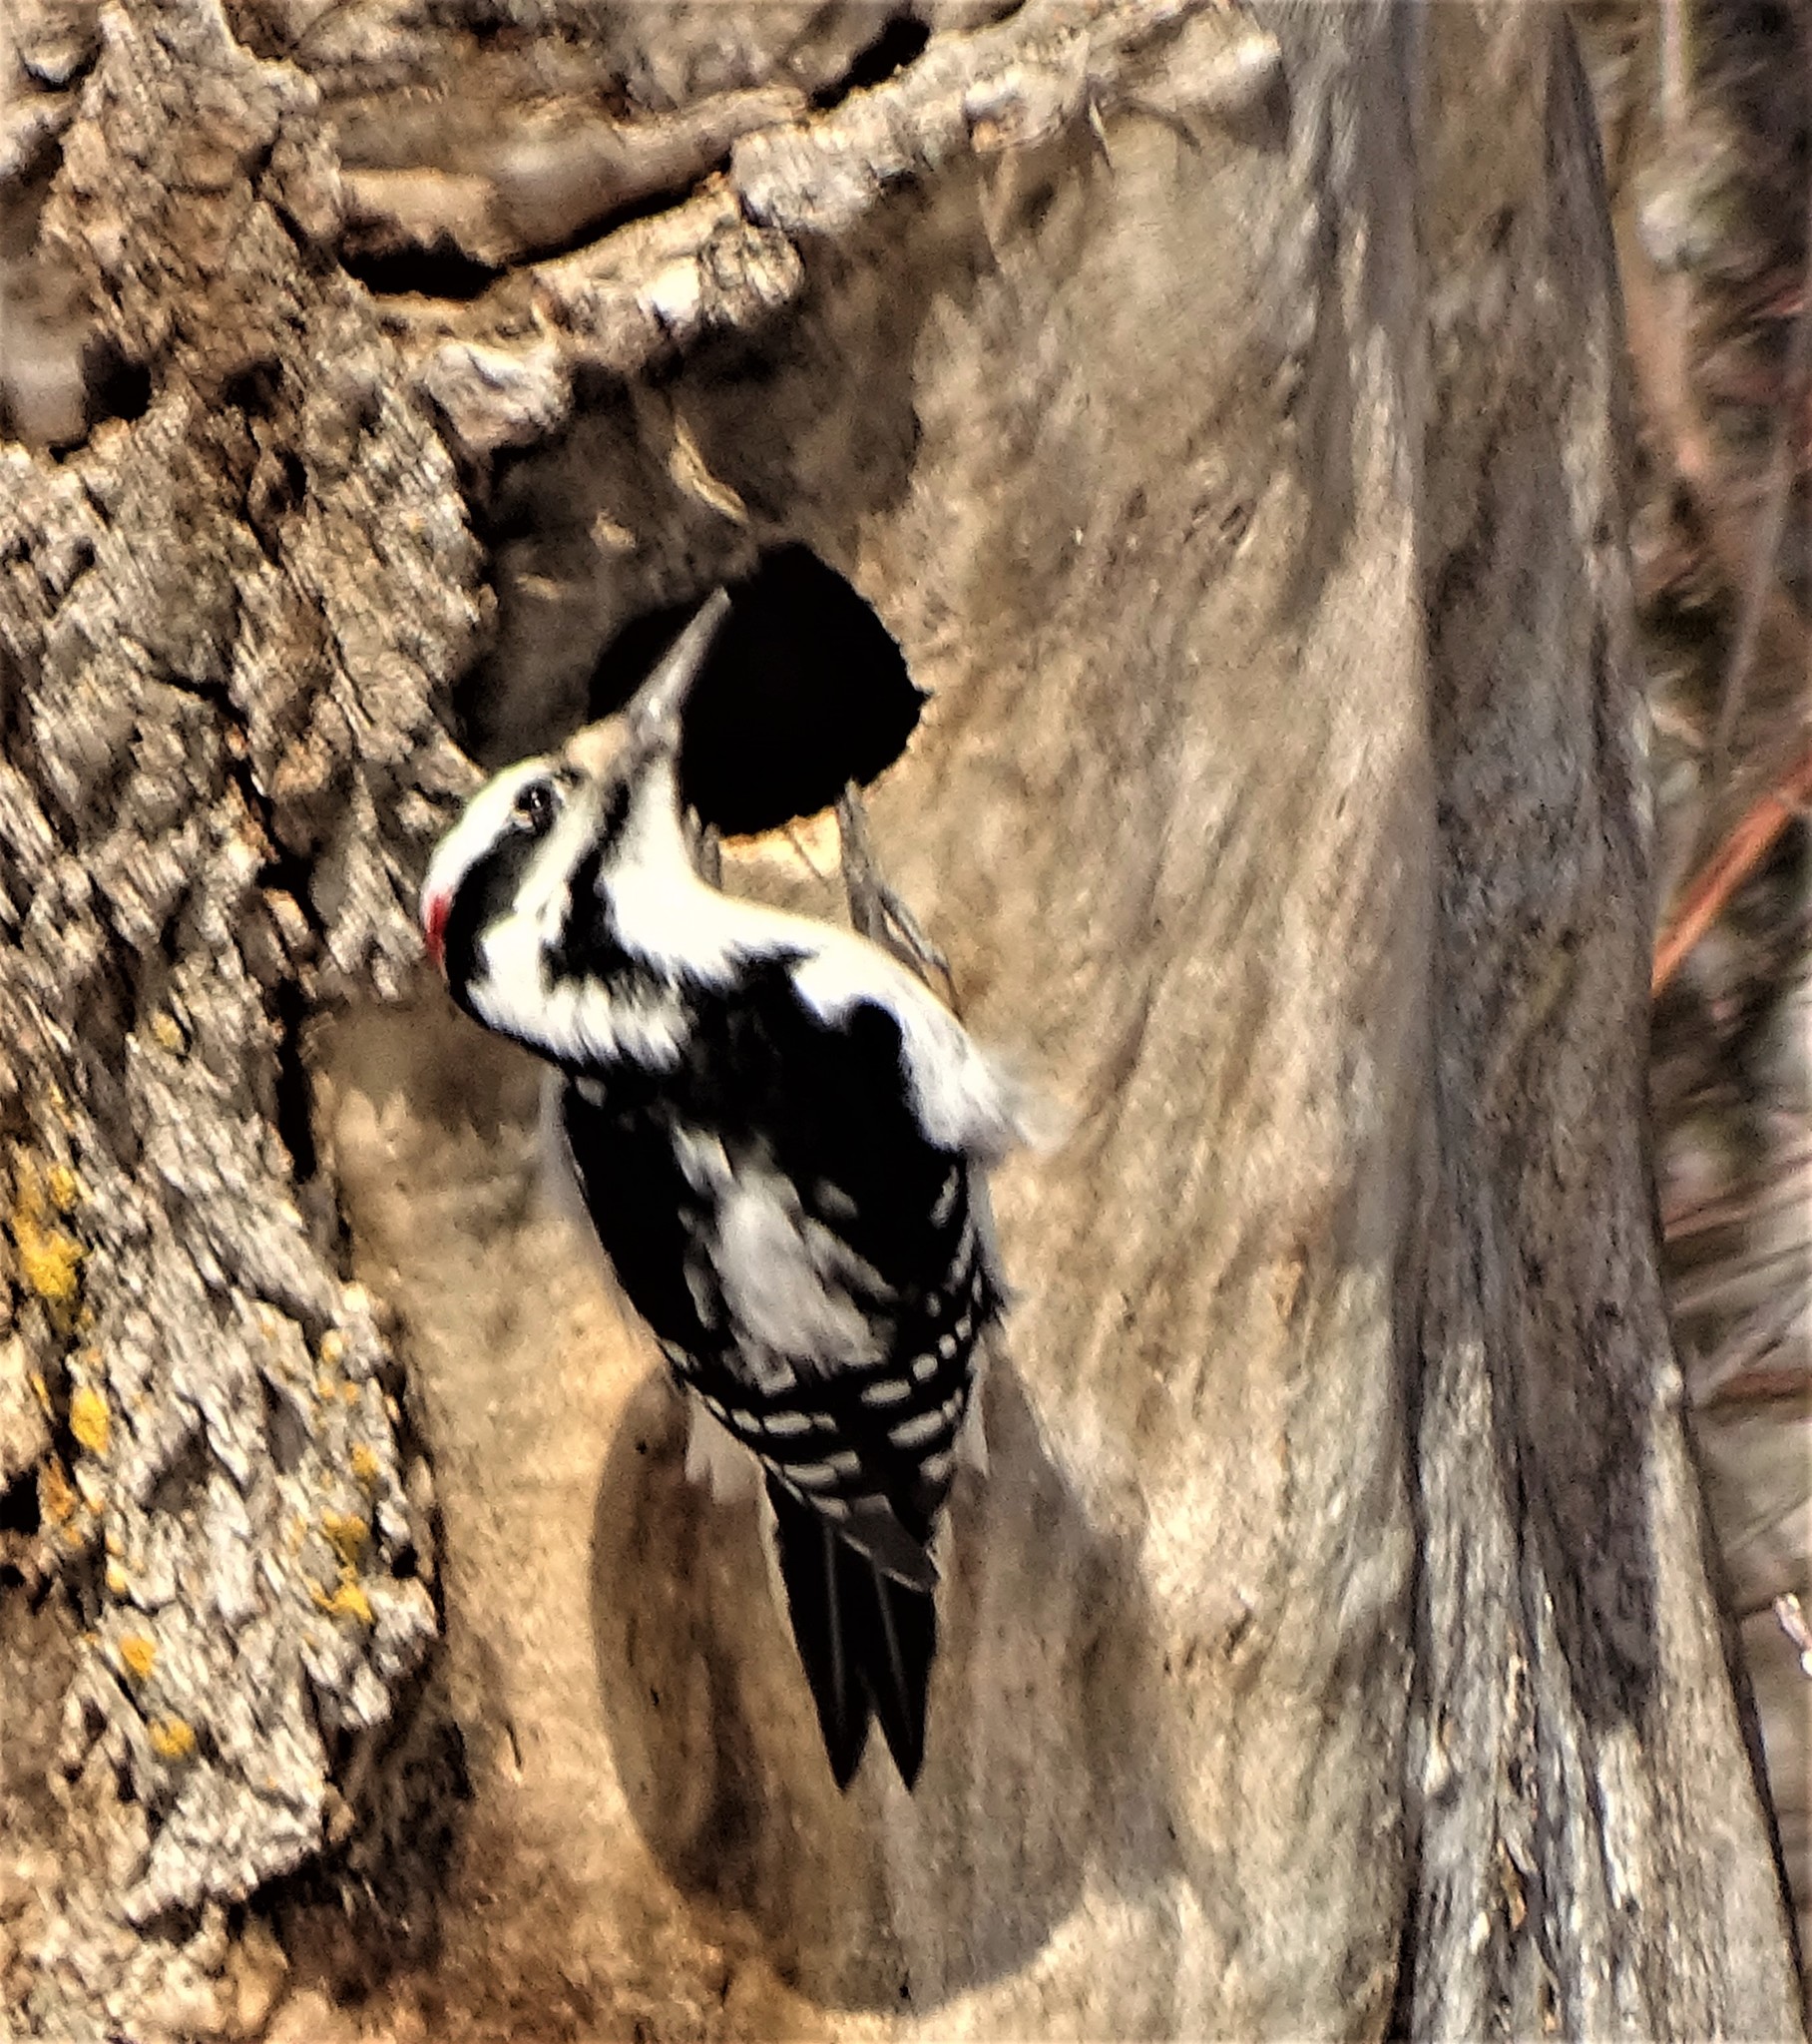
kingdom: Animalia
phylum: Chordata
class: Aves
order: Piciformes
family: Picidae
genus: Leuconotopicus
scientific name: Leuconotopicus villosus
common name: Hairy woodpecker
